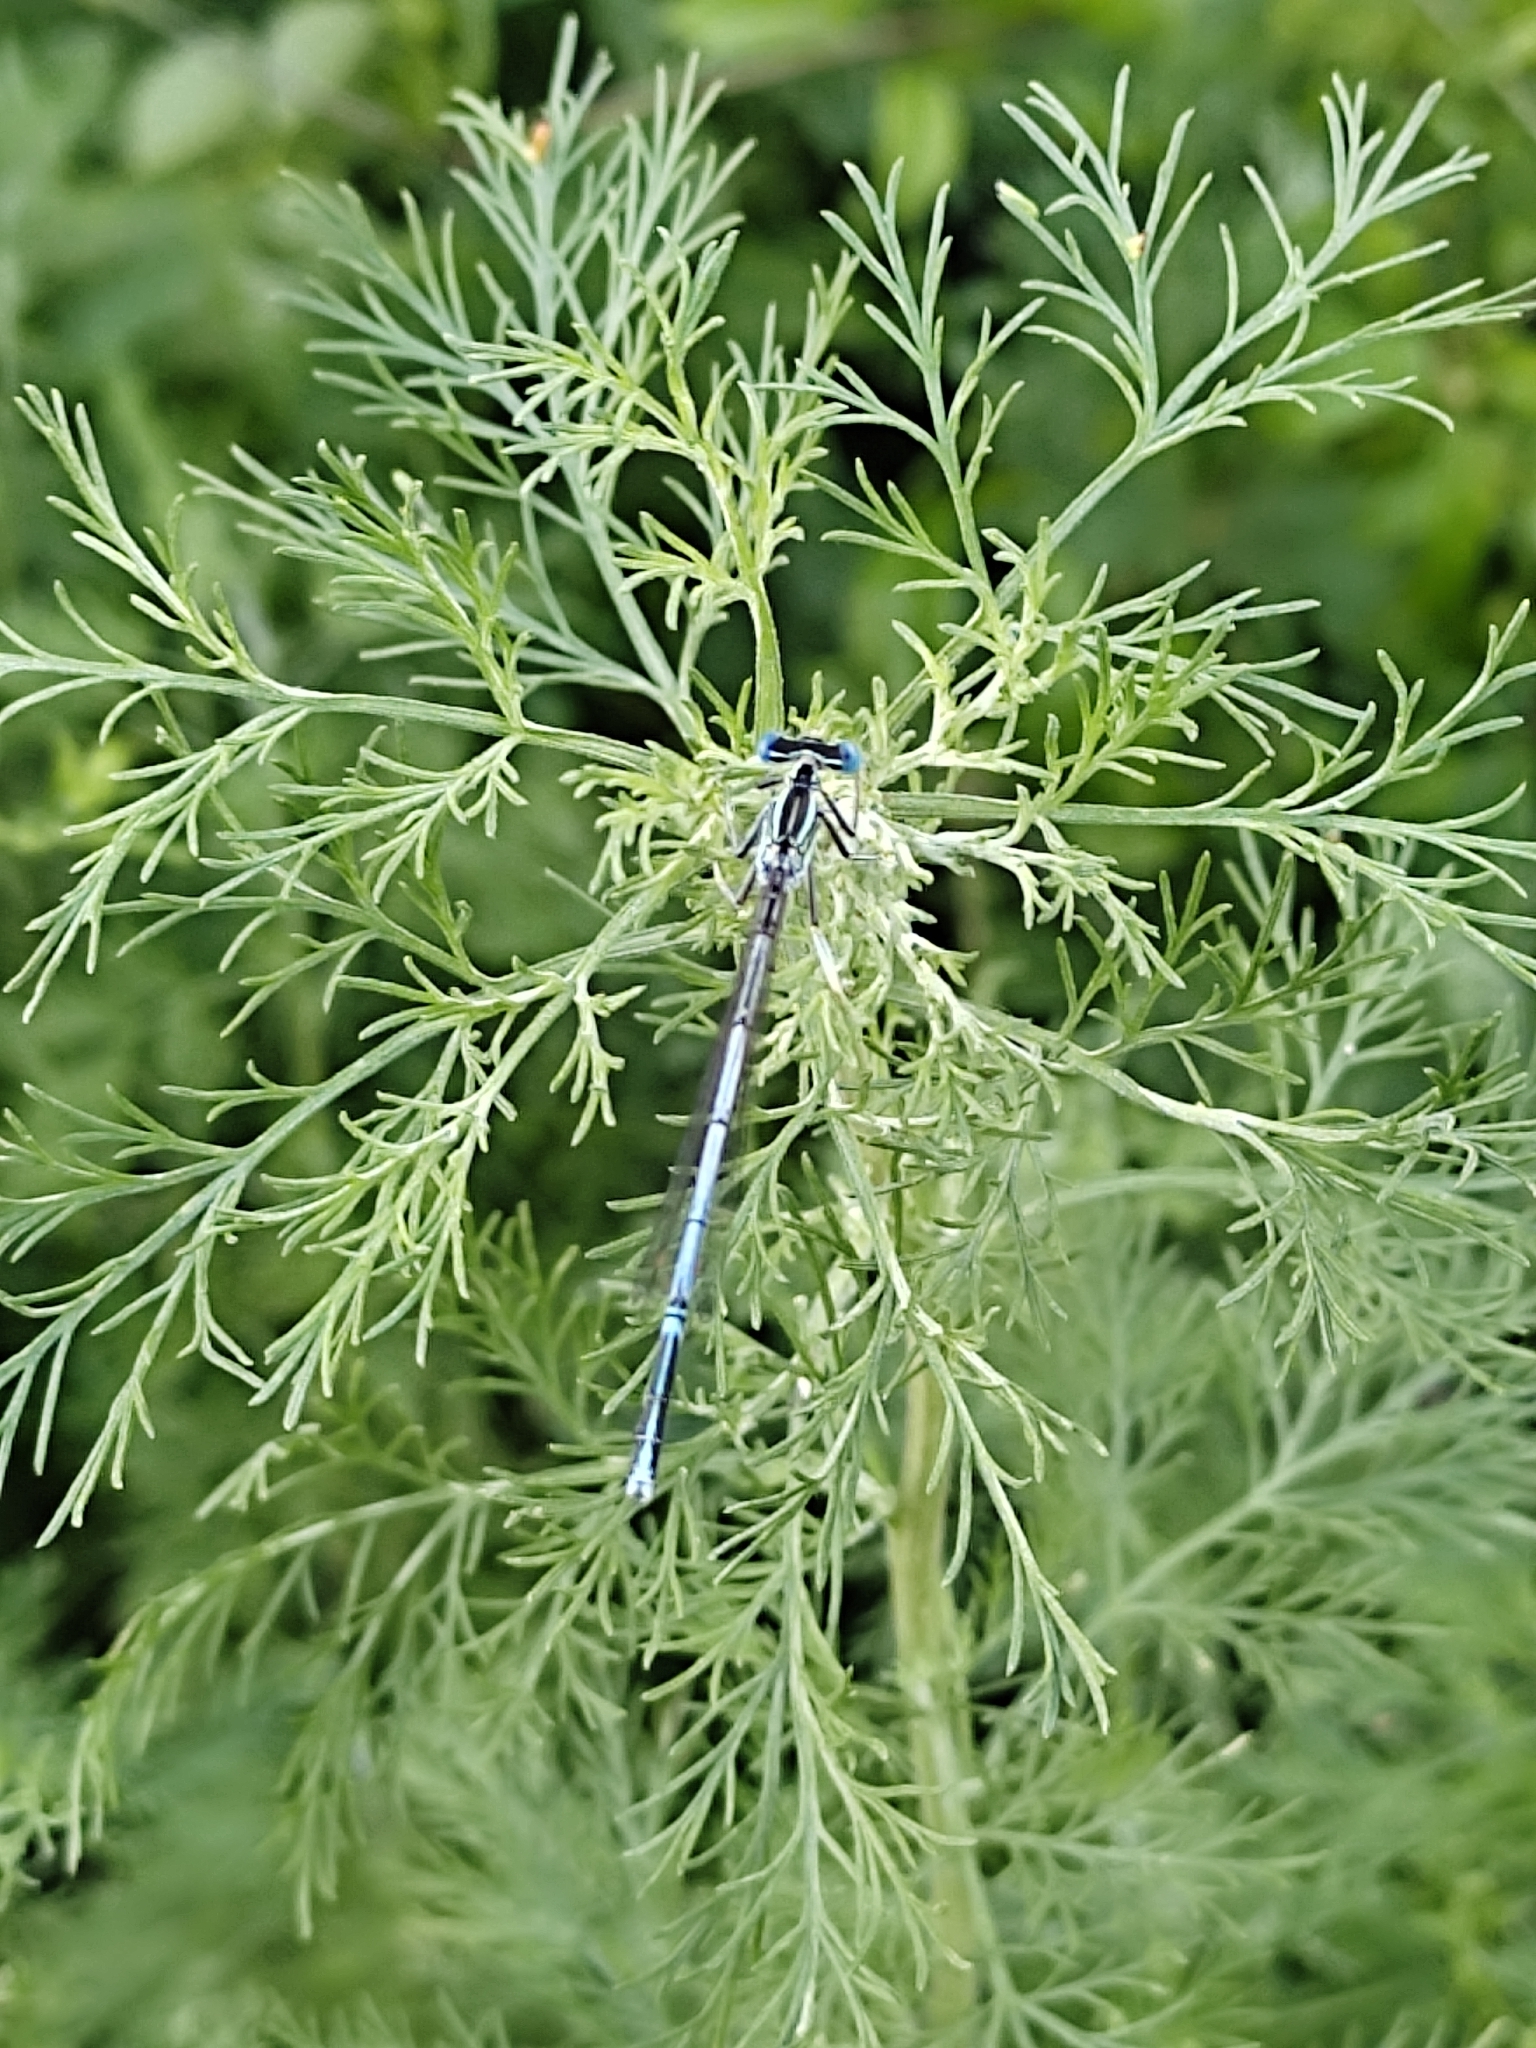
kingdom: Animalia
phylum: Arthropoda
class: Insecta
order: Odonata
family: Platycnemididae
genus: Platycnemis
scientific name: Platycnemis pennipes
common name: White-legged damselfly
